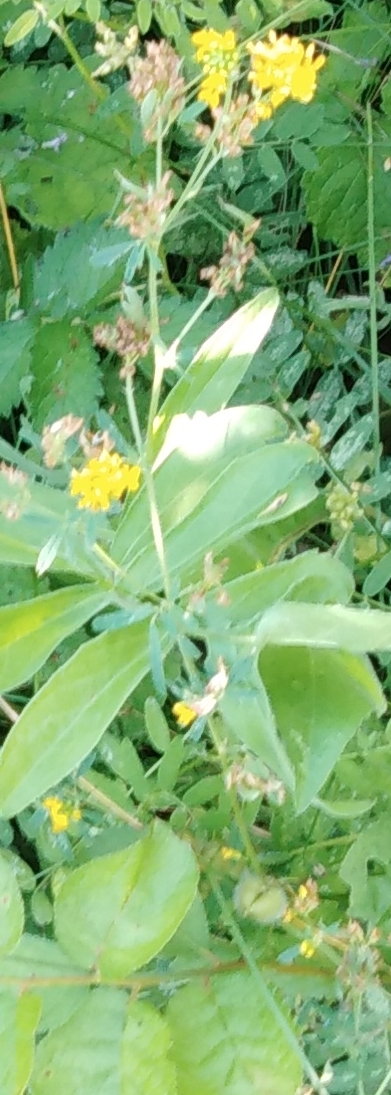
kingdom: Plantae
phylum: Tracheophyta
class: Magnoliopsida
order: Fabales
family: Fabaceae
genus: Medicago
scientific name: Medicago falcata
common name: Sickle medick
